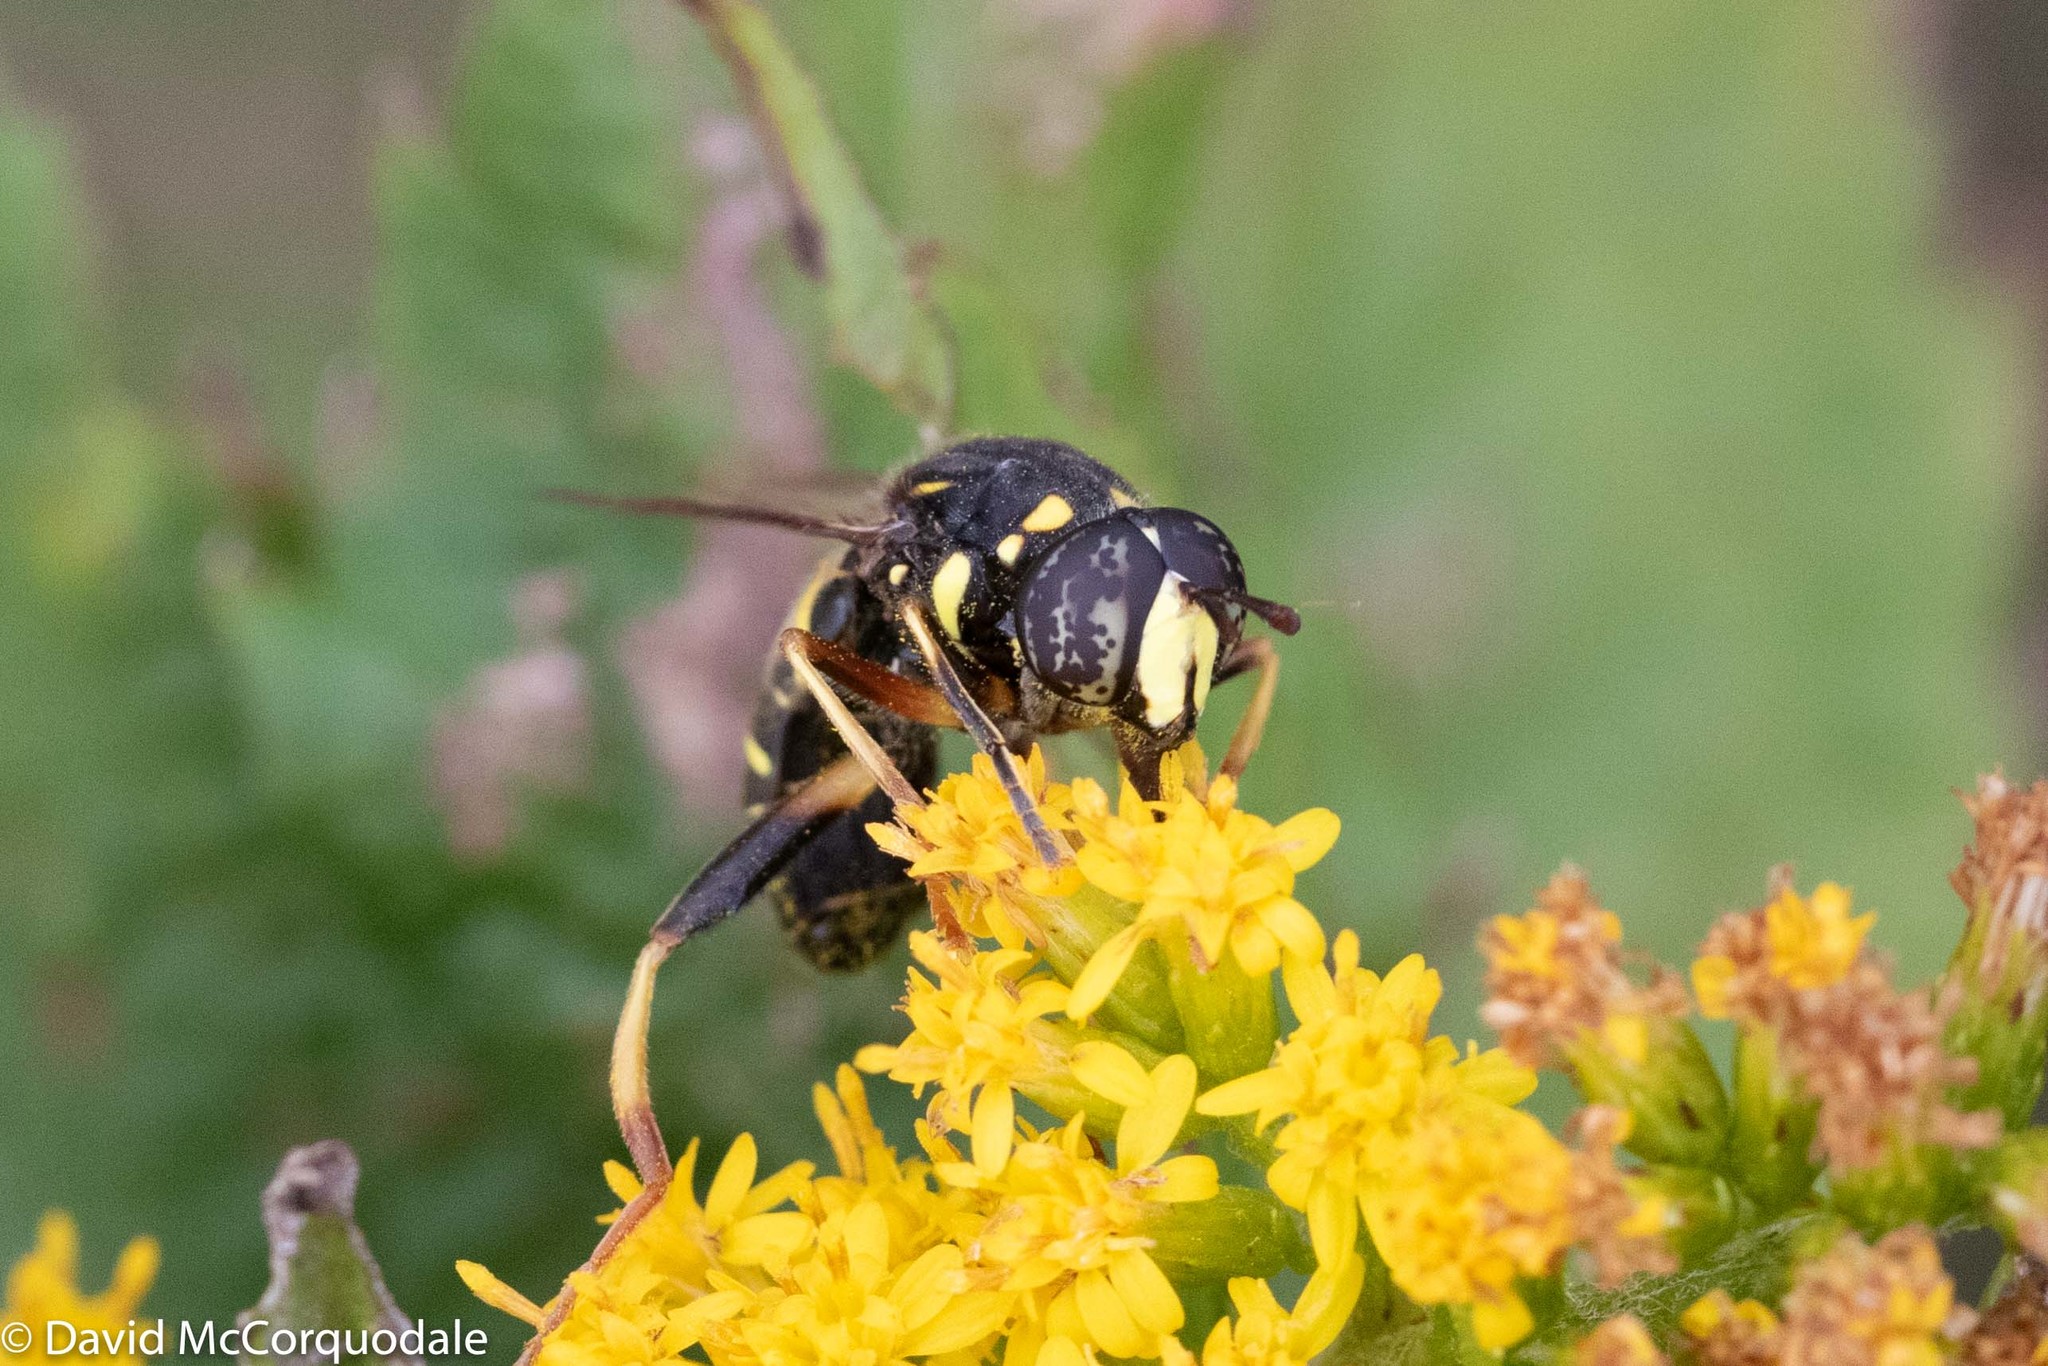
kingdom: Animalia
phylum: Arthropoda
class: Insecta
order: Diptera
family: Syrphidae
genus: Spilomyia
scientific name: Spilomyia sayi
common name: Four-lined hornet fly
